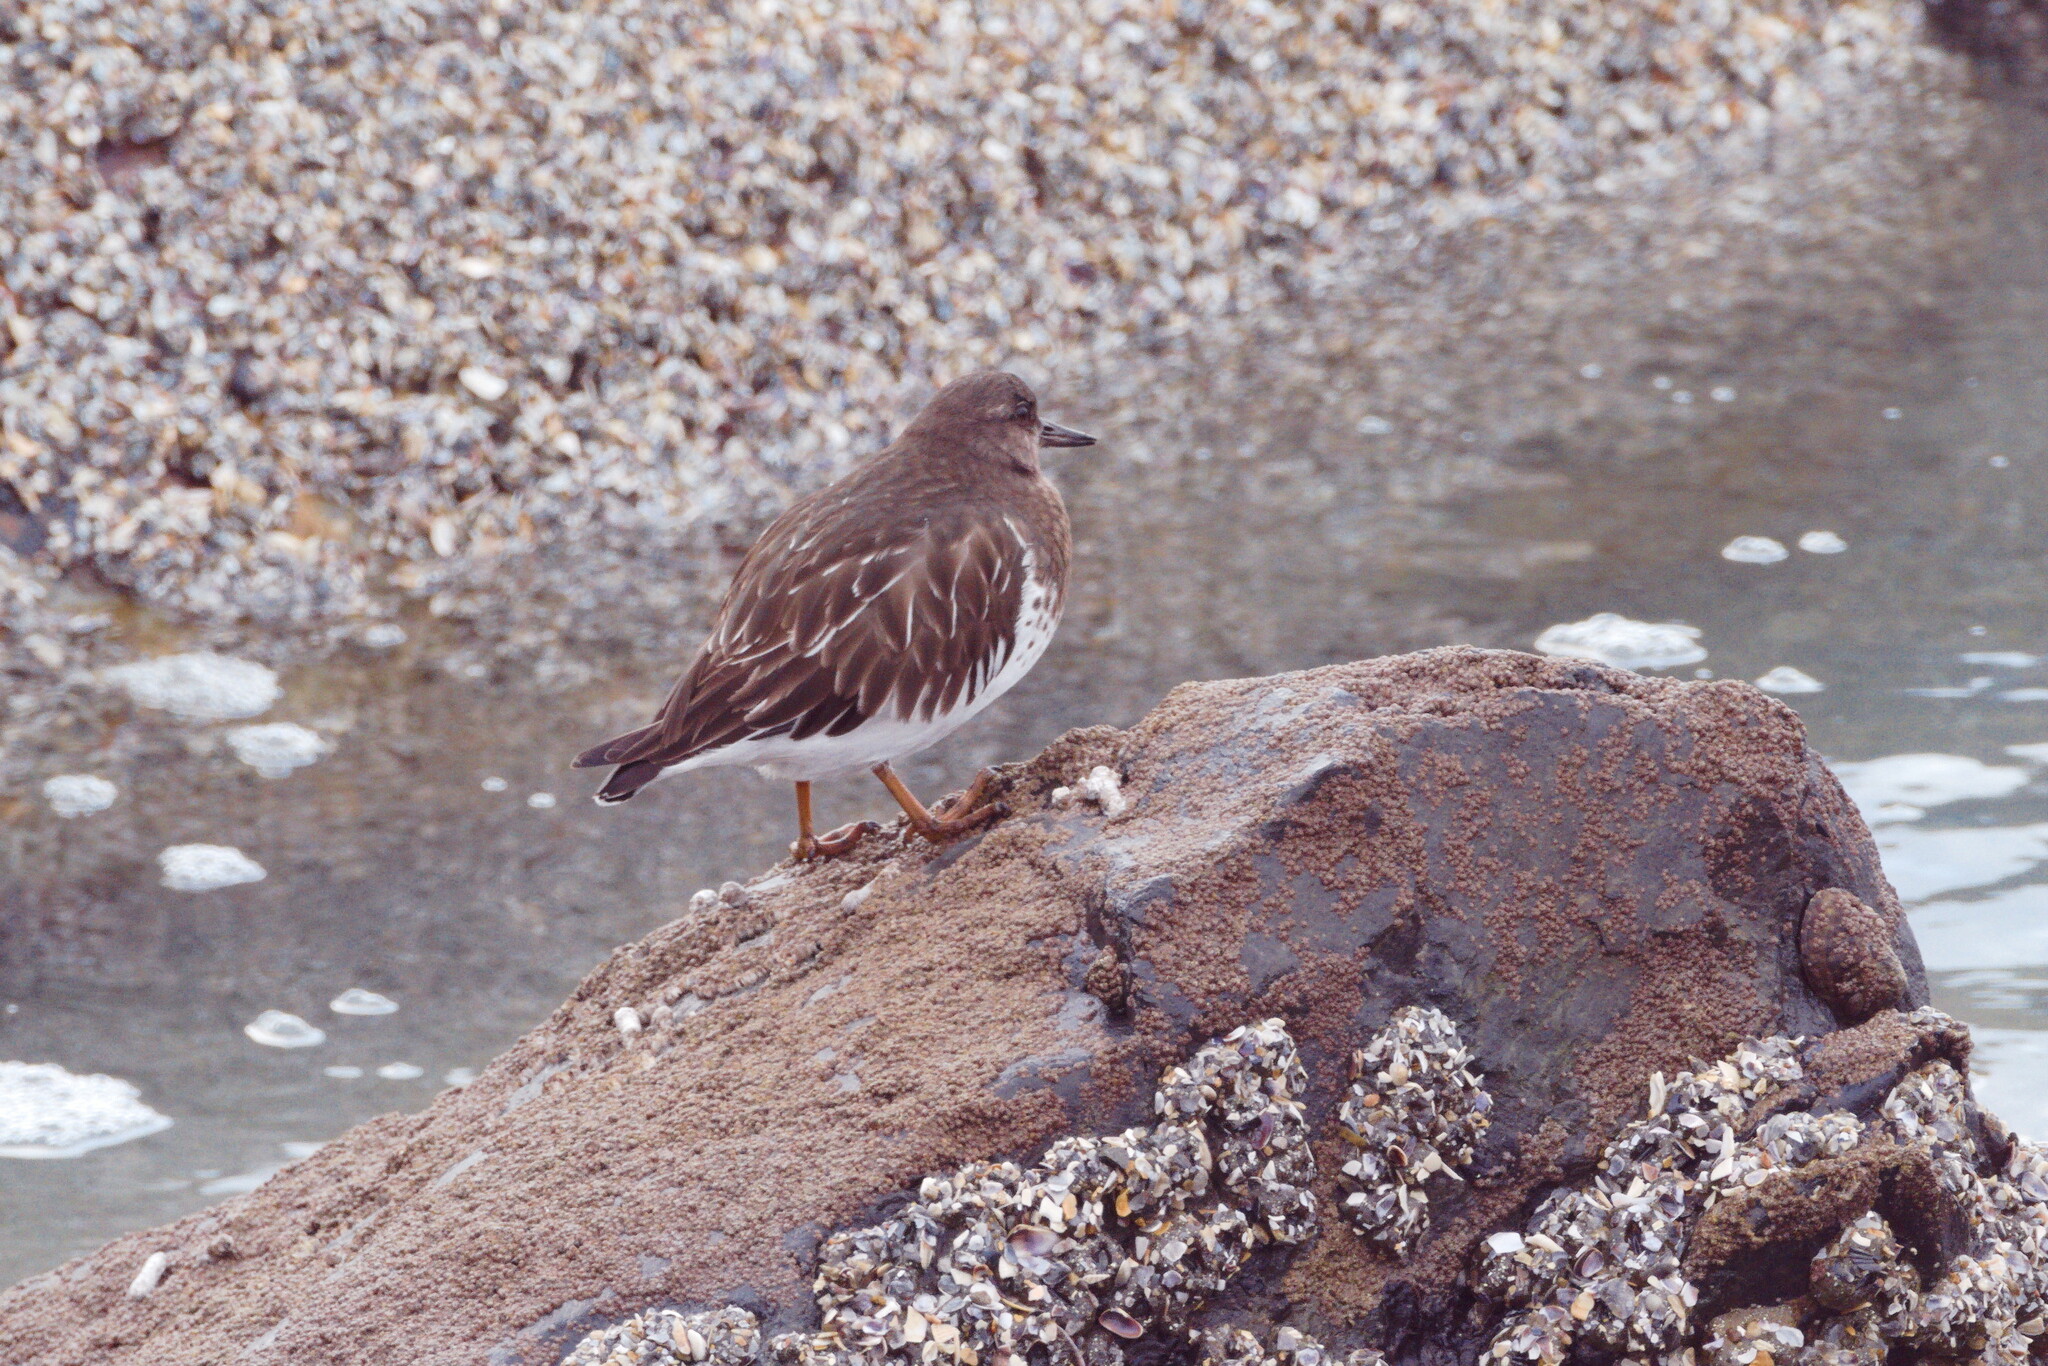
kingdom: Animalia
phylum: Chordata
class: Aves
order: Charadriiformes
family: Scolopacidae
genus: Arenaria
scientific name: Arenaria melanocephala
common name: Black turnstone
